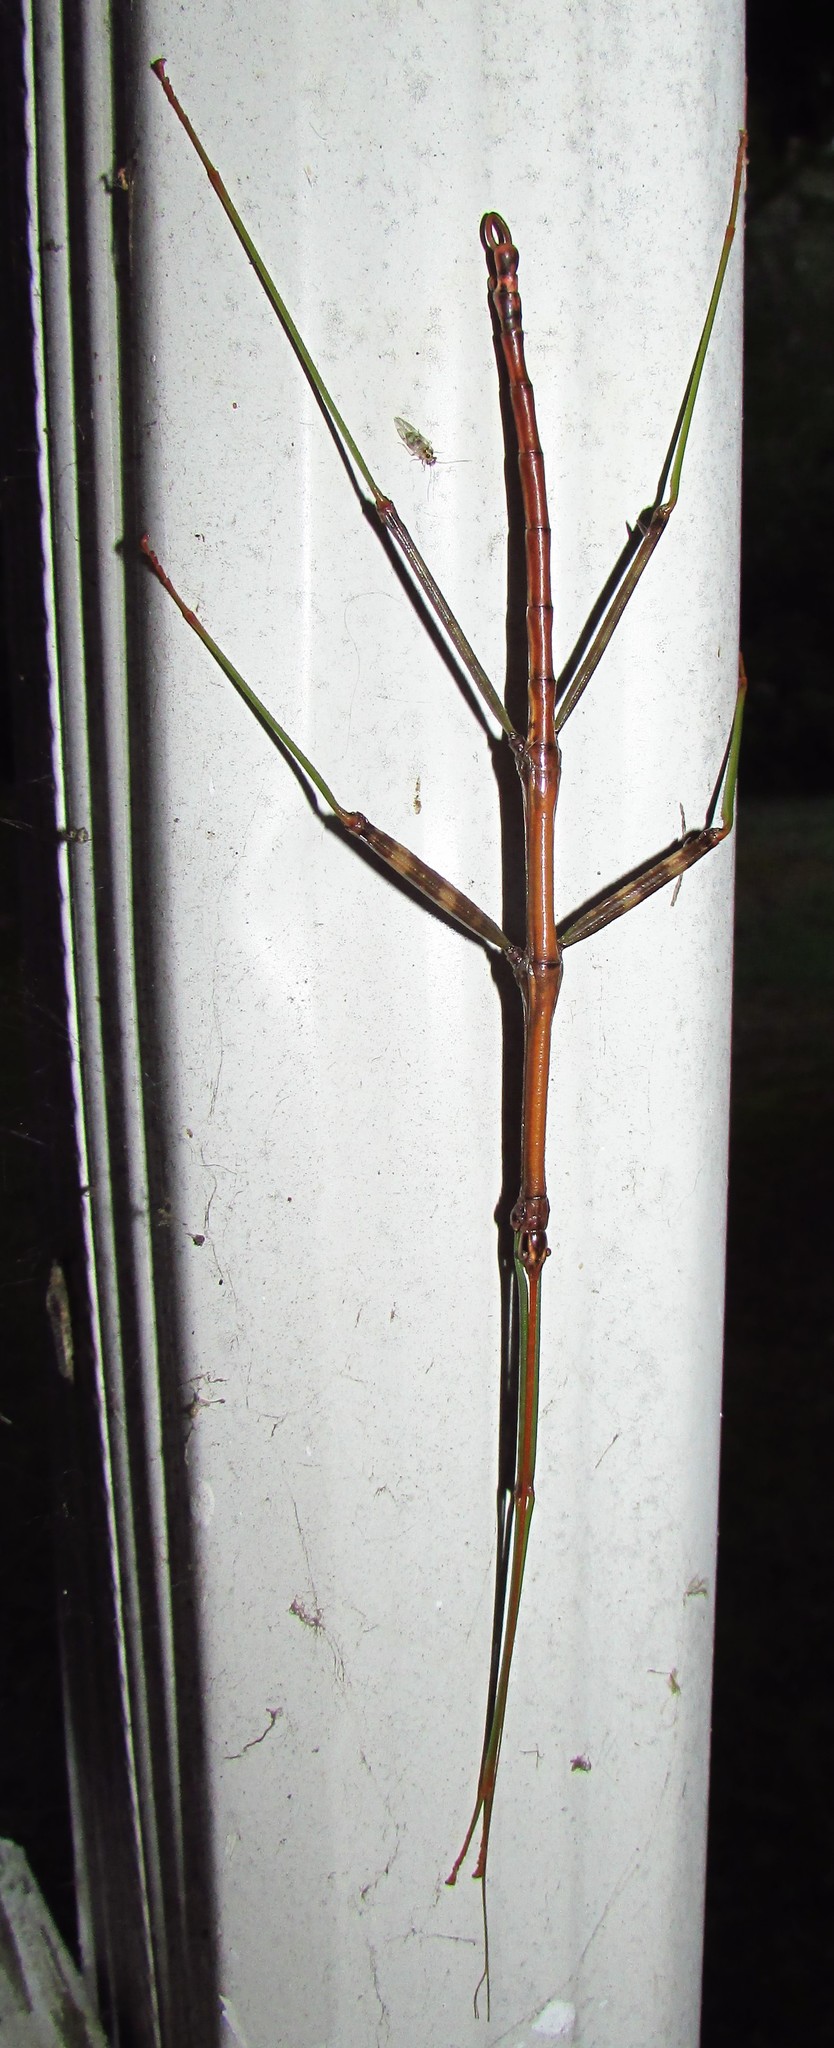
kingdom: Animalia
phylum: Arthropoda
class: Insecta
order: Phasmida
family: Diapheromeridae
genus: Diapheromera
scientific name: Diapheromera femorata
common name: Common american walkingstick
